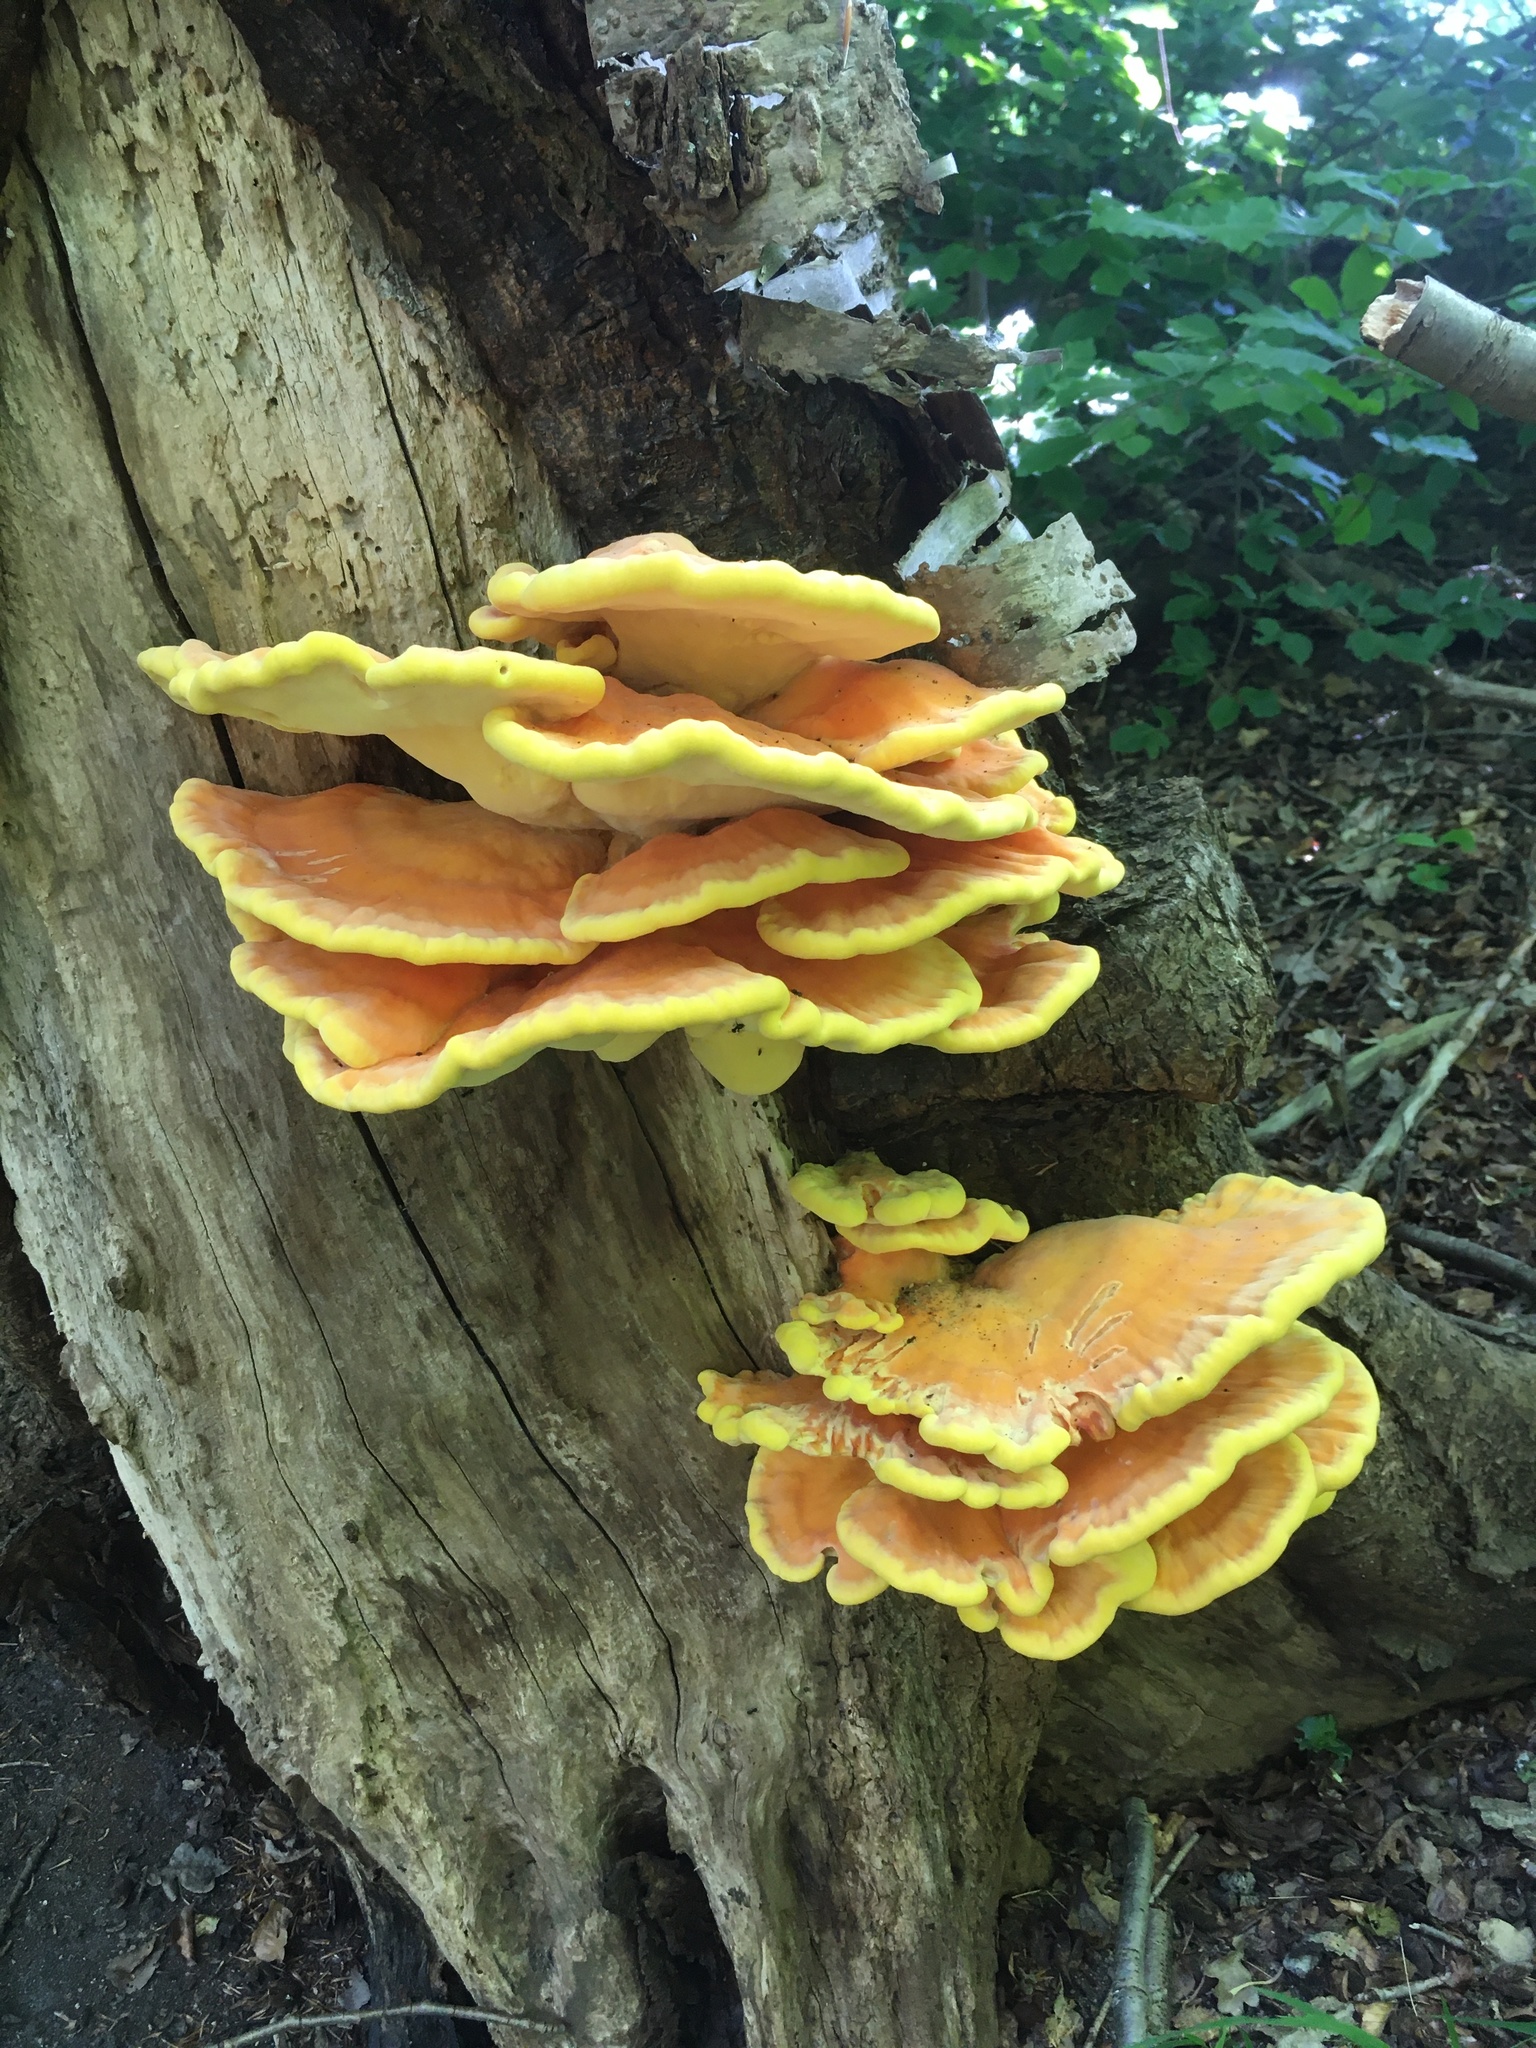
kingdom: Fungi
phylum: Basidiomycota
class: Agaricomycetes
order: Polyporales
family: Laetiporaceae
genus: Laetiporus
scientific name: Laetiporus sulphureus
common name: Chicken of the woods
